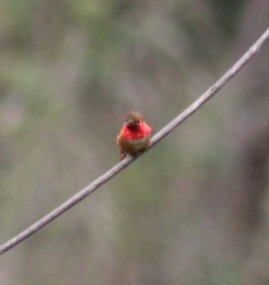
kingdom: Animalia
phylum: Chordata
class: Aves
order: Apodiformes
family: Trochilidae
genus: Selasphorus
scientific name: Selasphorus sasin
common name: Allen's hummingbird
